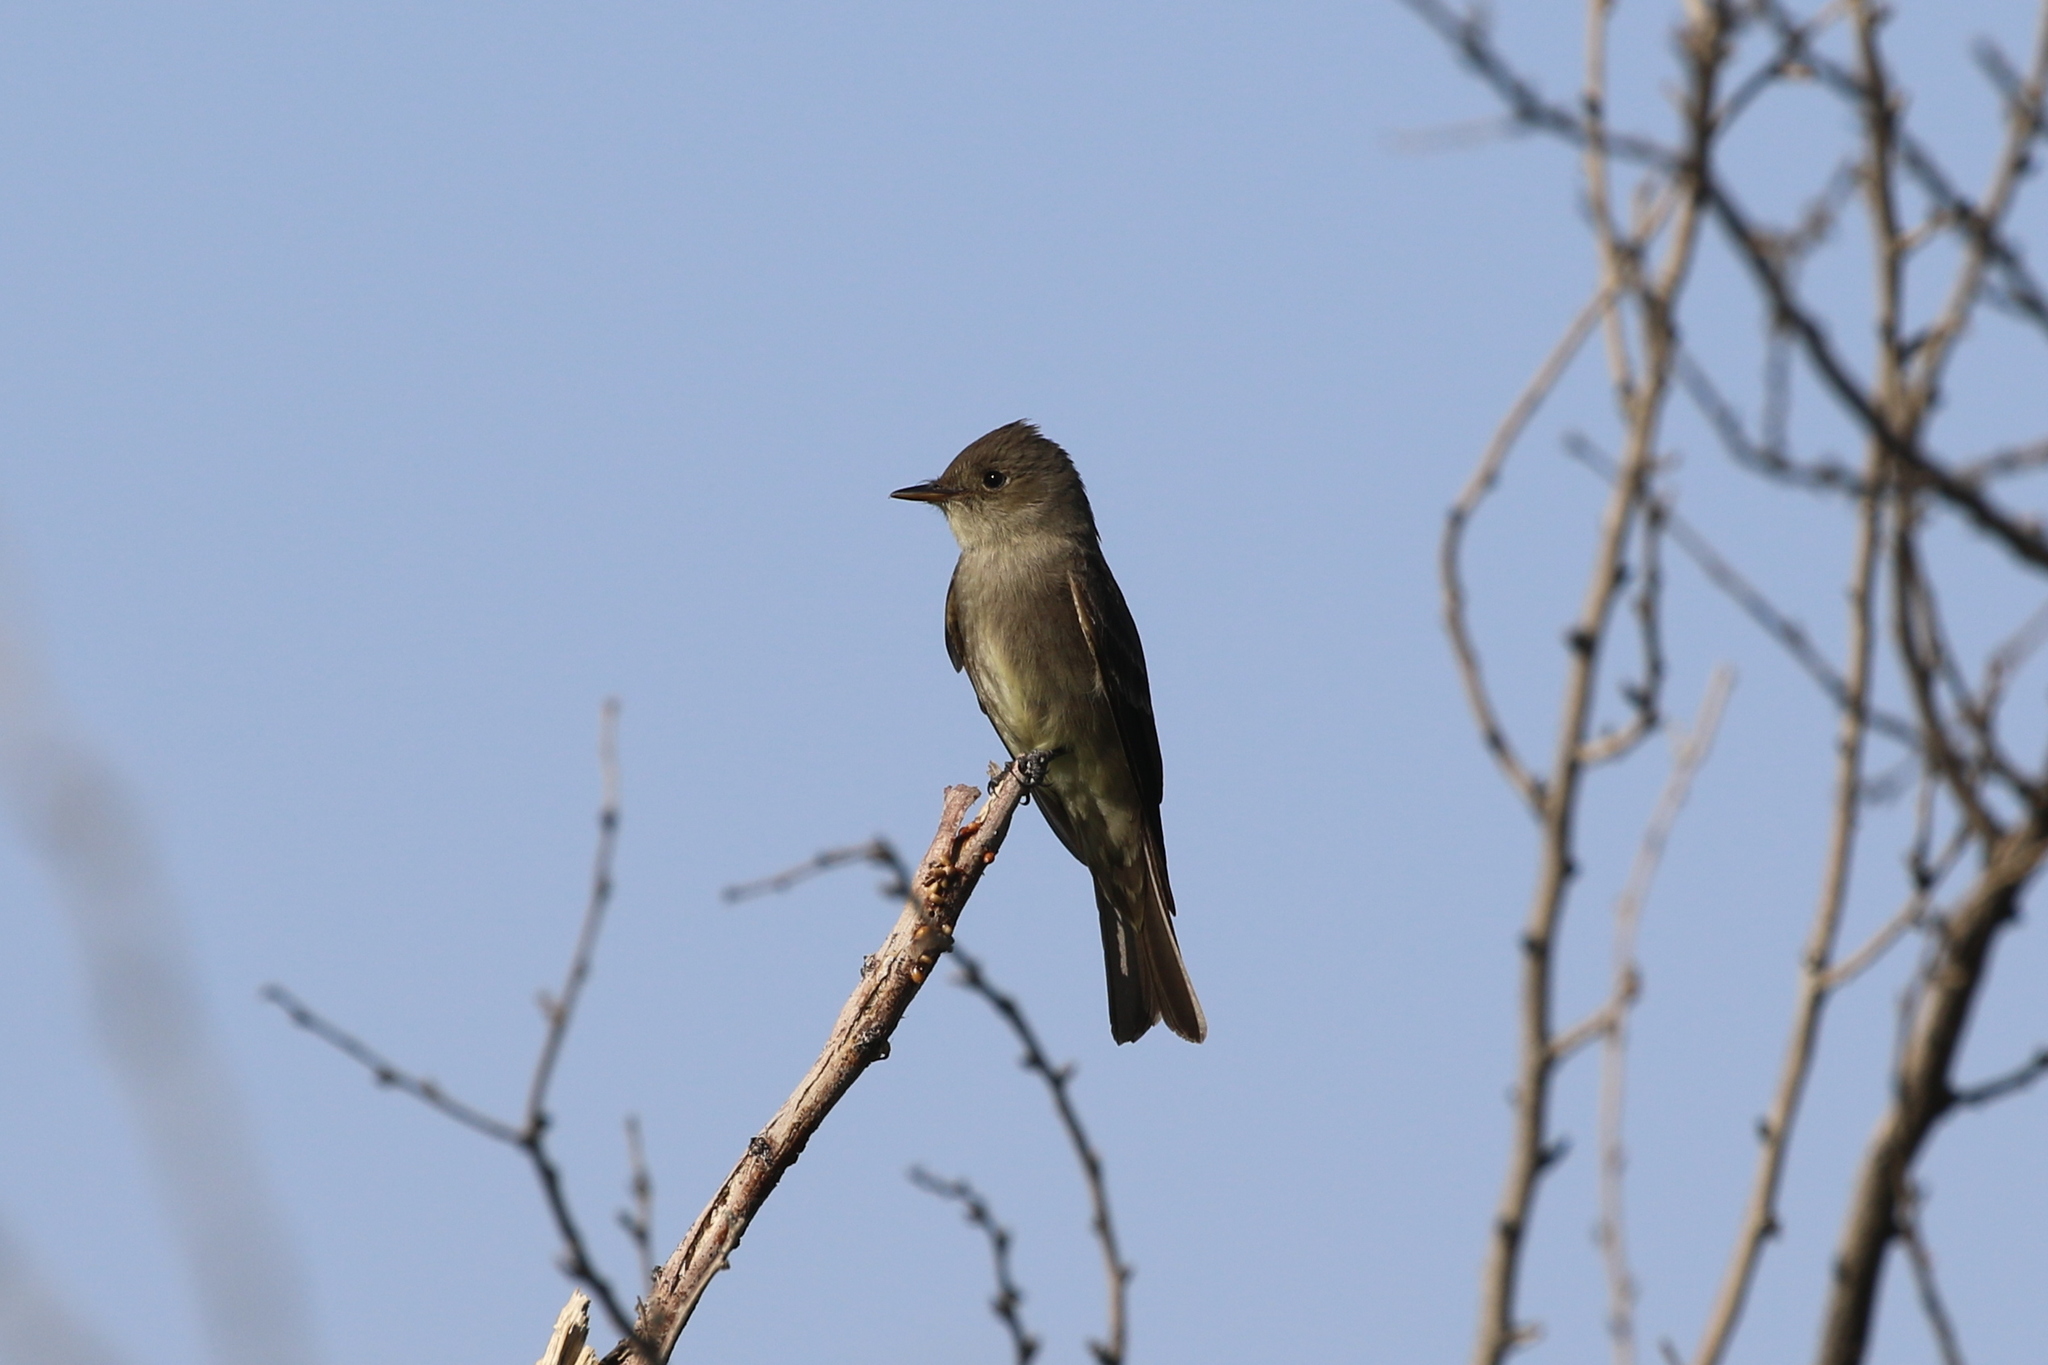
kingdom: Animalia
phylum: Chordata
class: Aves
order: Passeriformes
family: Tyrannidae
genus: Contopus
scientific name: Contopus sordidulus
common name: Western wood-pewee
